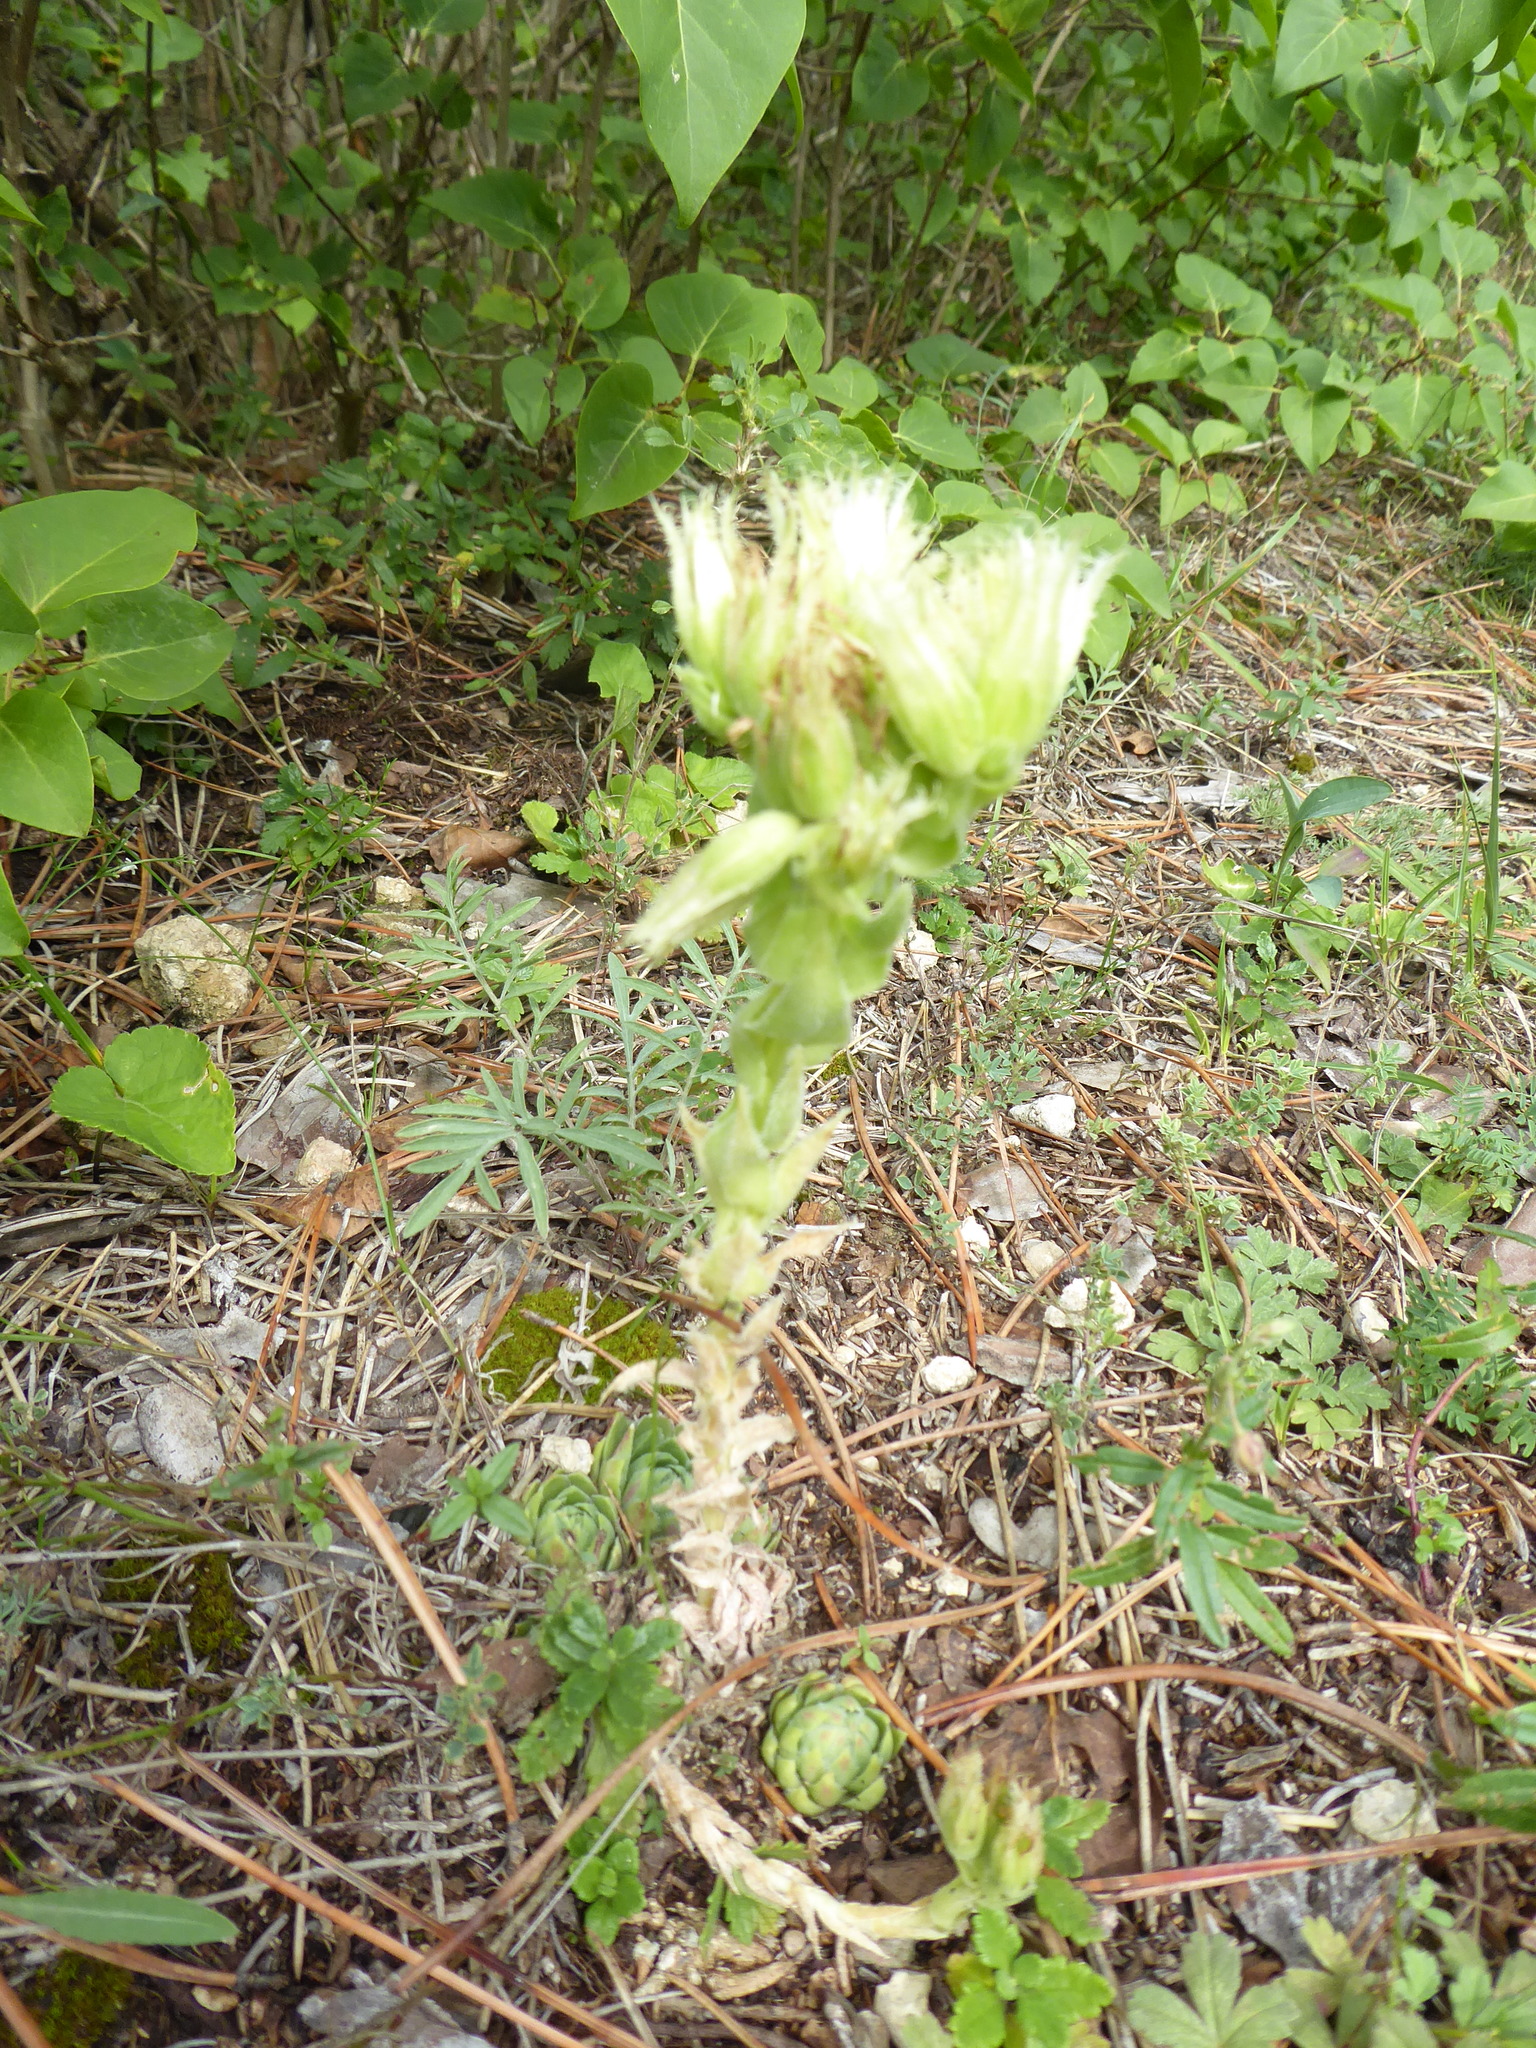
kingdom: Plantae
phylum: Tracheophyta
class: Magnoliopsida
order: Saxifragales
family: Crassulaceae
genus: Sempervivum
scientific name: Sempervivum globiferum
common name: Rolling hen-and-chicks
